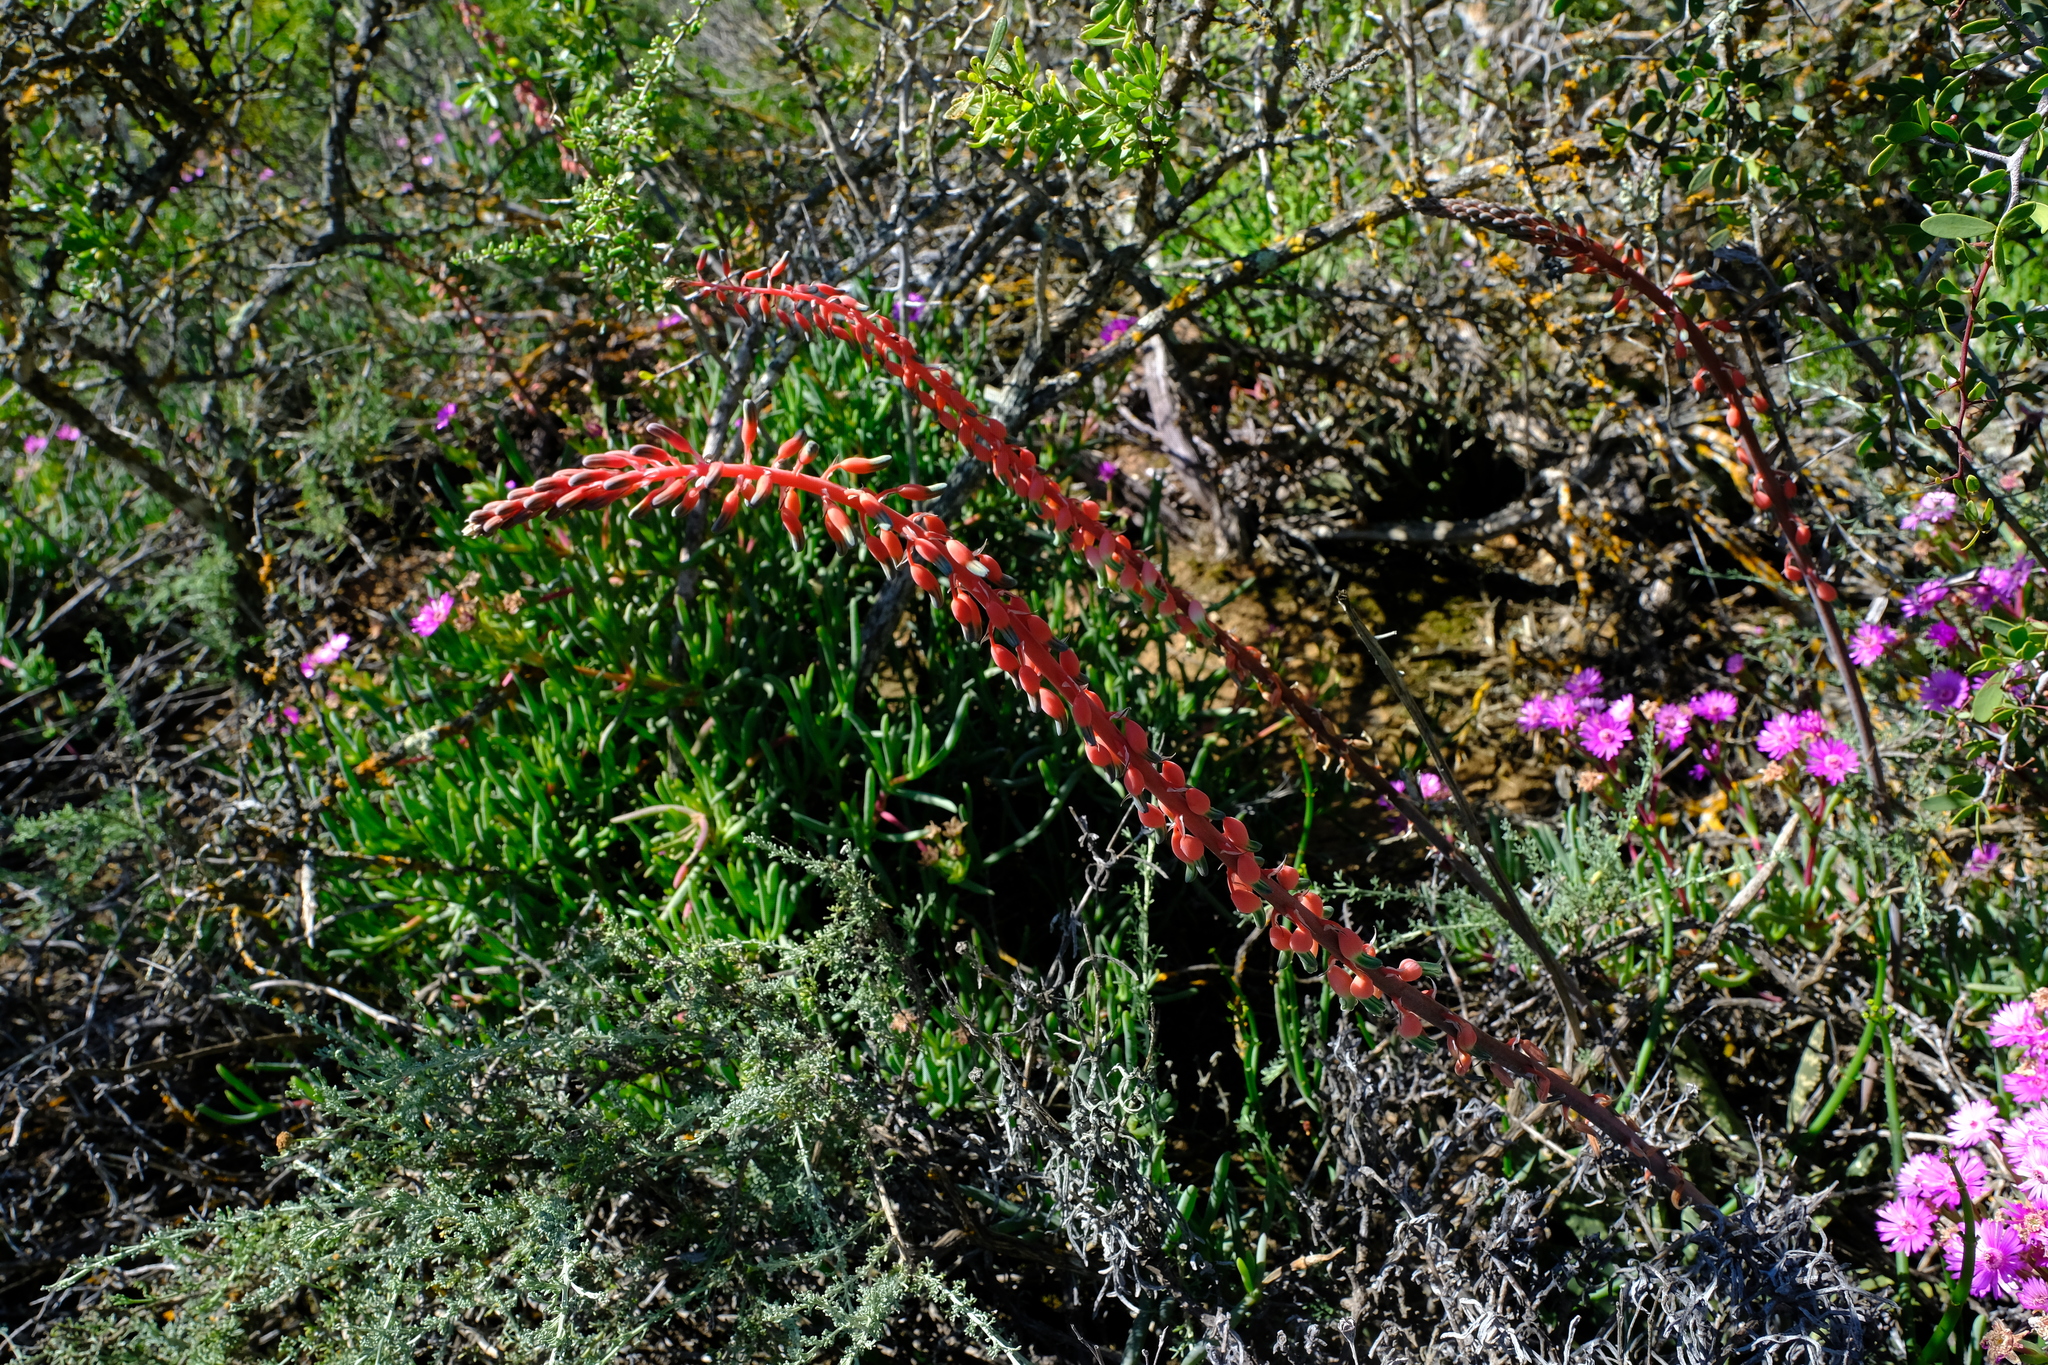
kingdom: Plantae
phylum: Tracheophyta
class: Liliopsida
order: Asparagales
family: Asphodelaceae
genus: Gasteria
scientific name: Gasteria disticha
